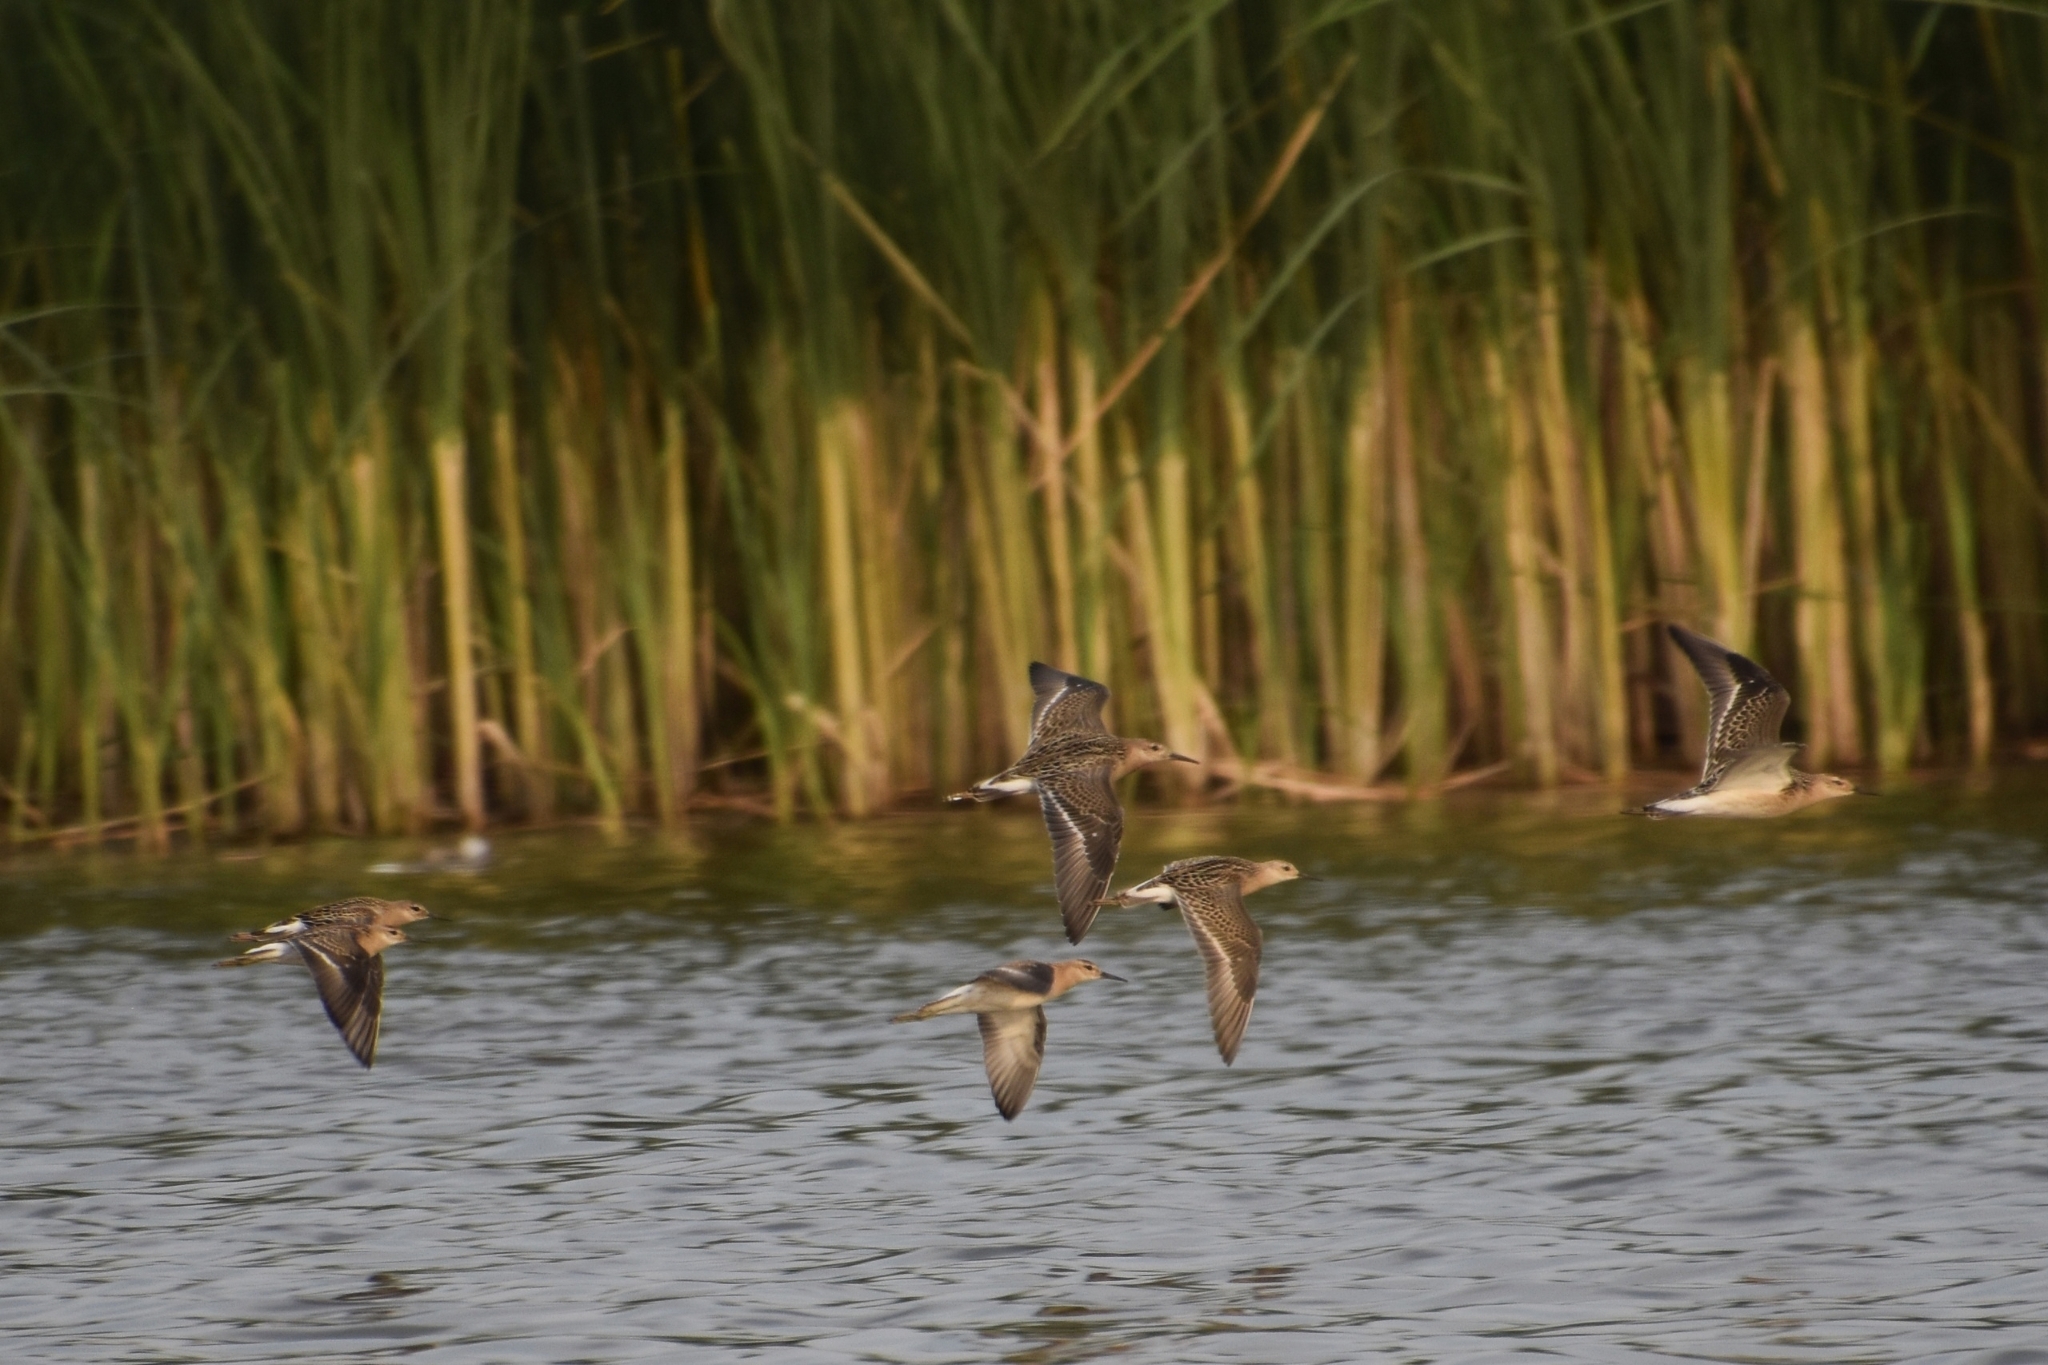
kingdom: Animalia
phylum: Chordata
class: Aves
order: Charadriiformes
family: Scolopacidae
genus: Calidris
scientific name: Calidris pugnax
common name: Ruff
